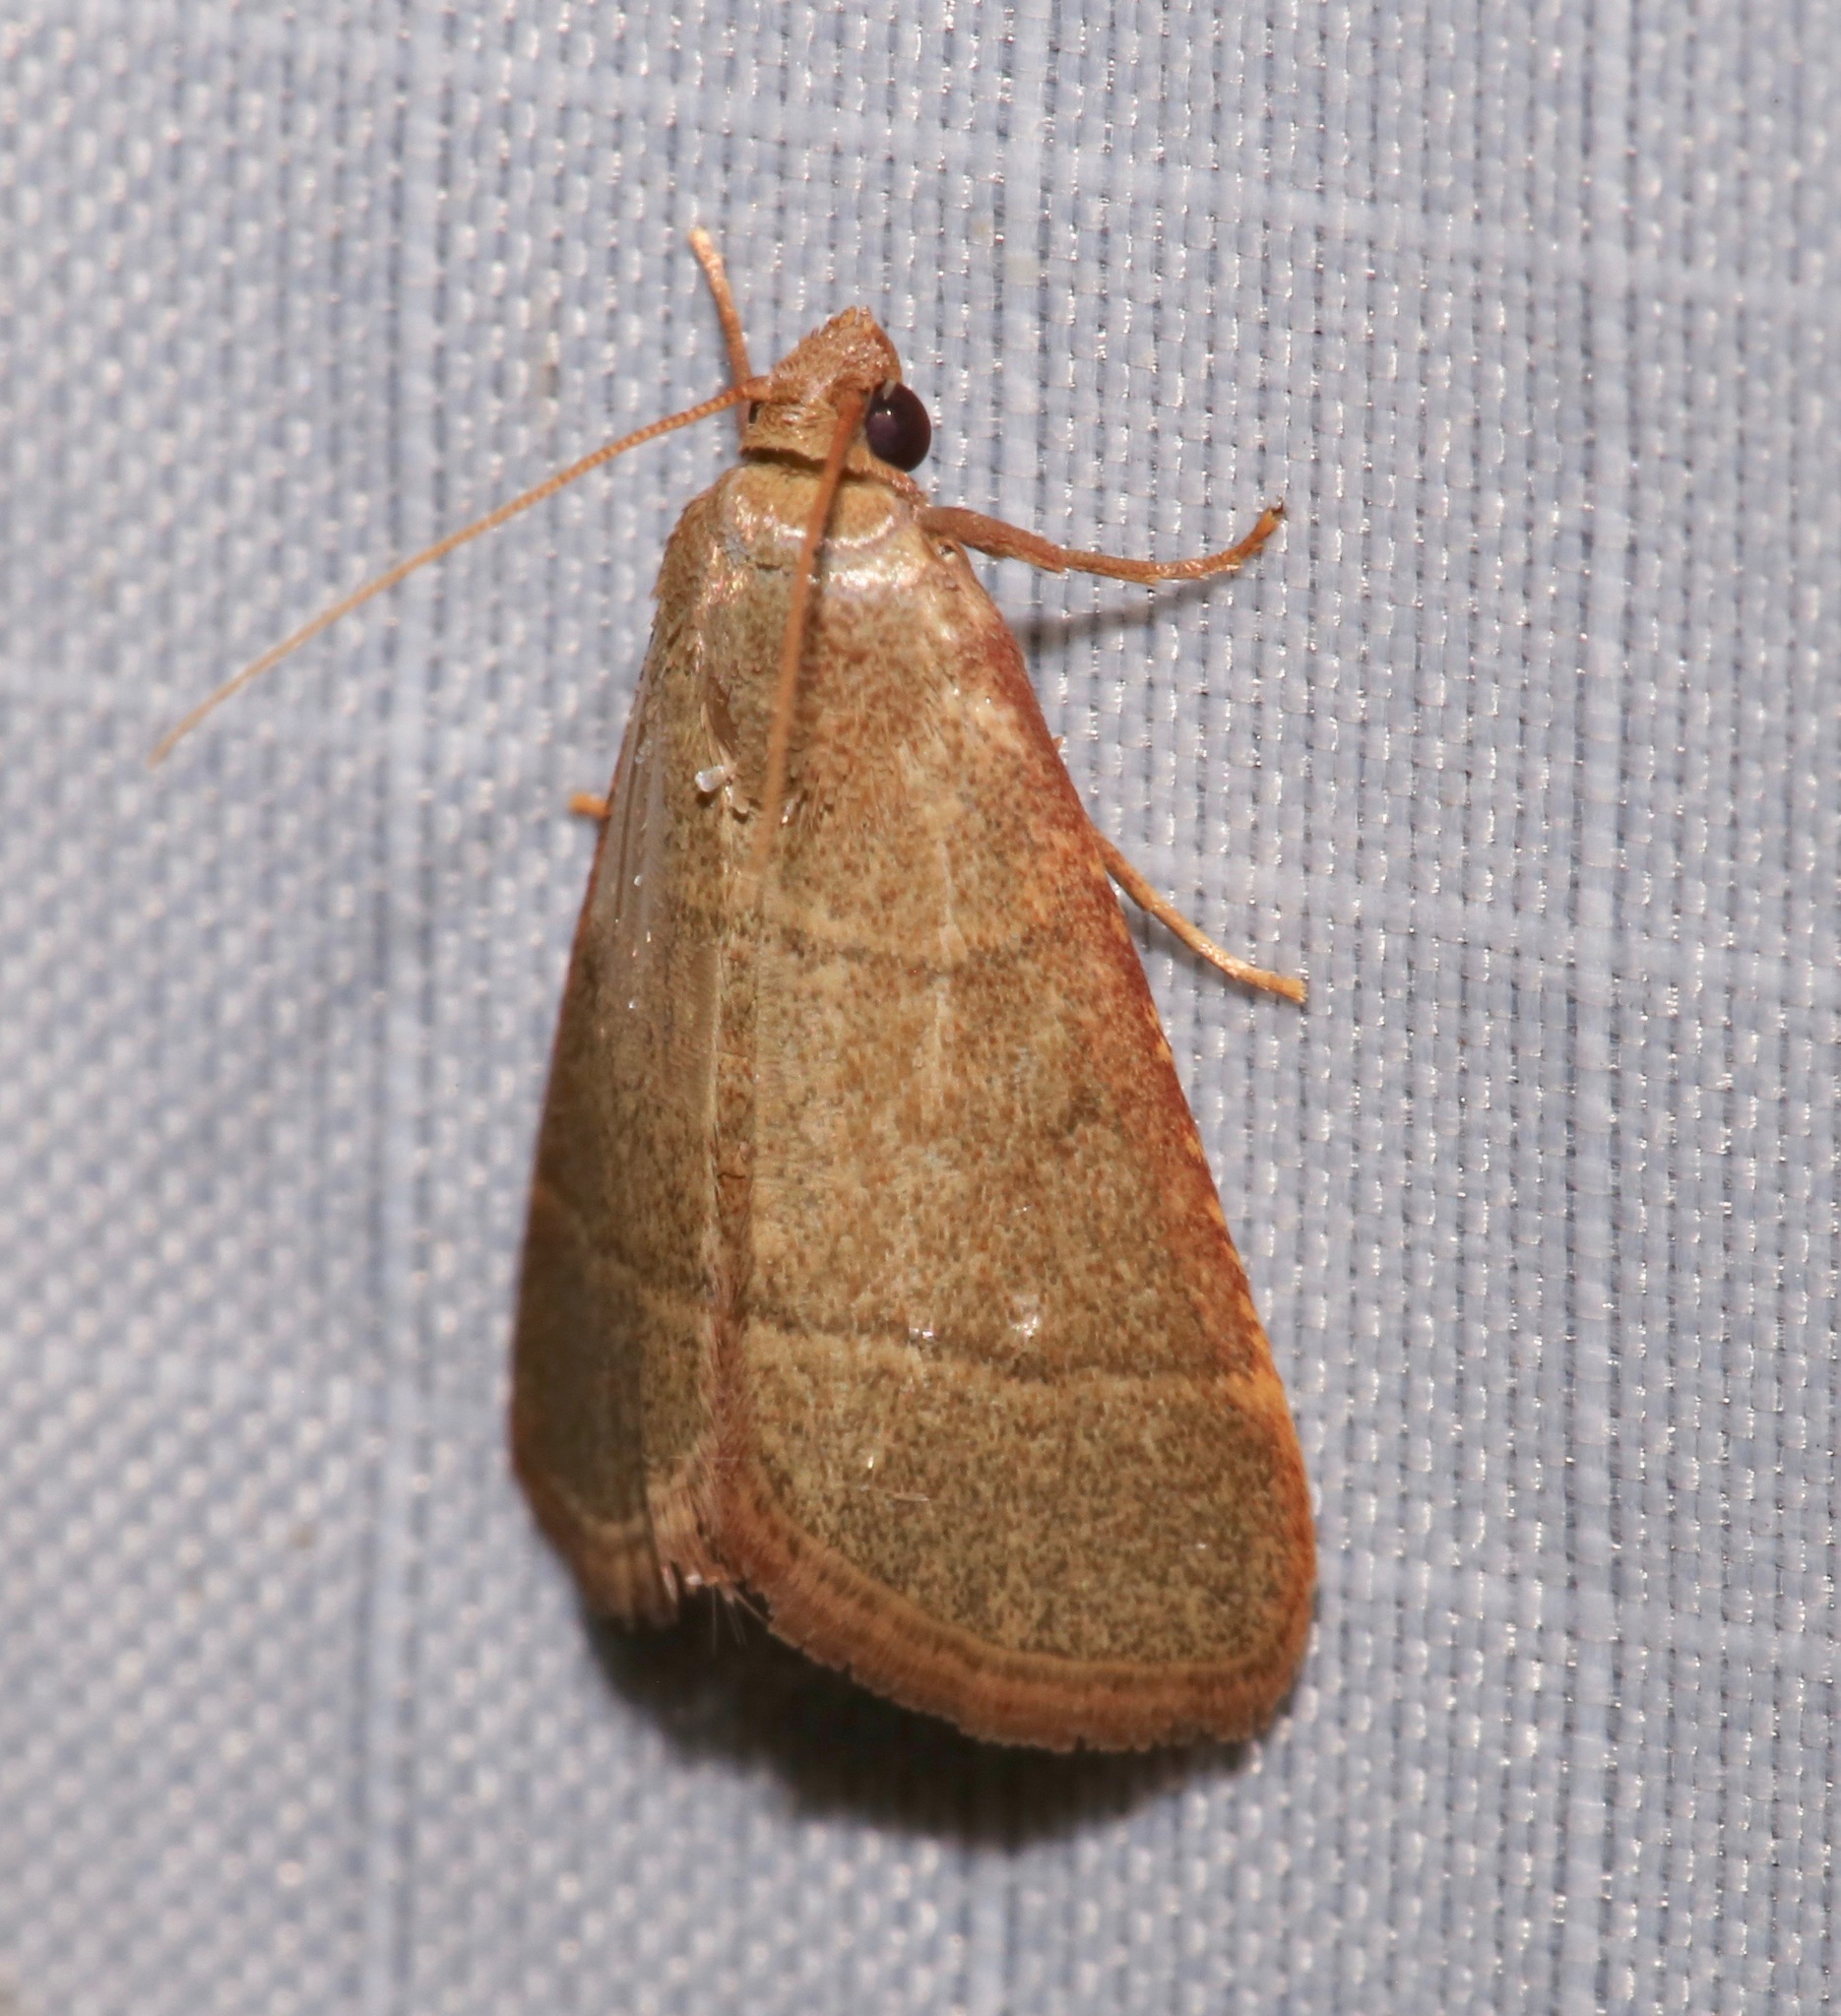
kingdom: Animalia
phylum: Arthropoda
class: Insecta
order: Lepidoptera
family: Pyralidae
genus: Hypsopygia
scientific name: Hypsopygia nostralis
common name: Southern hayworm moth
